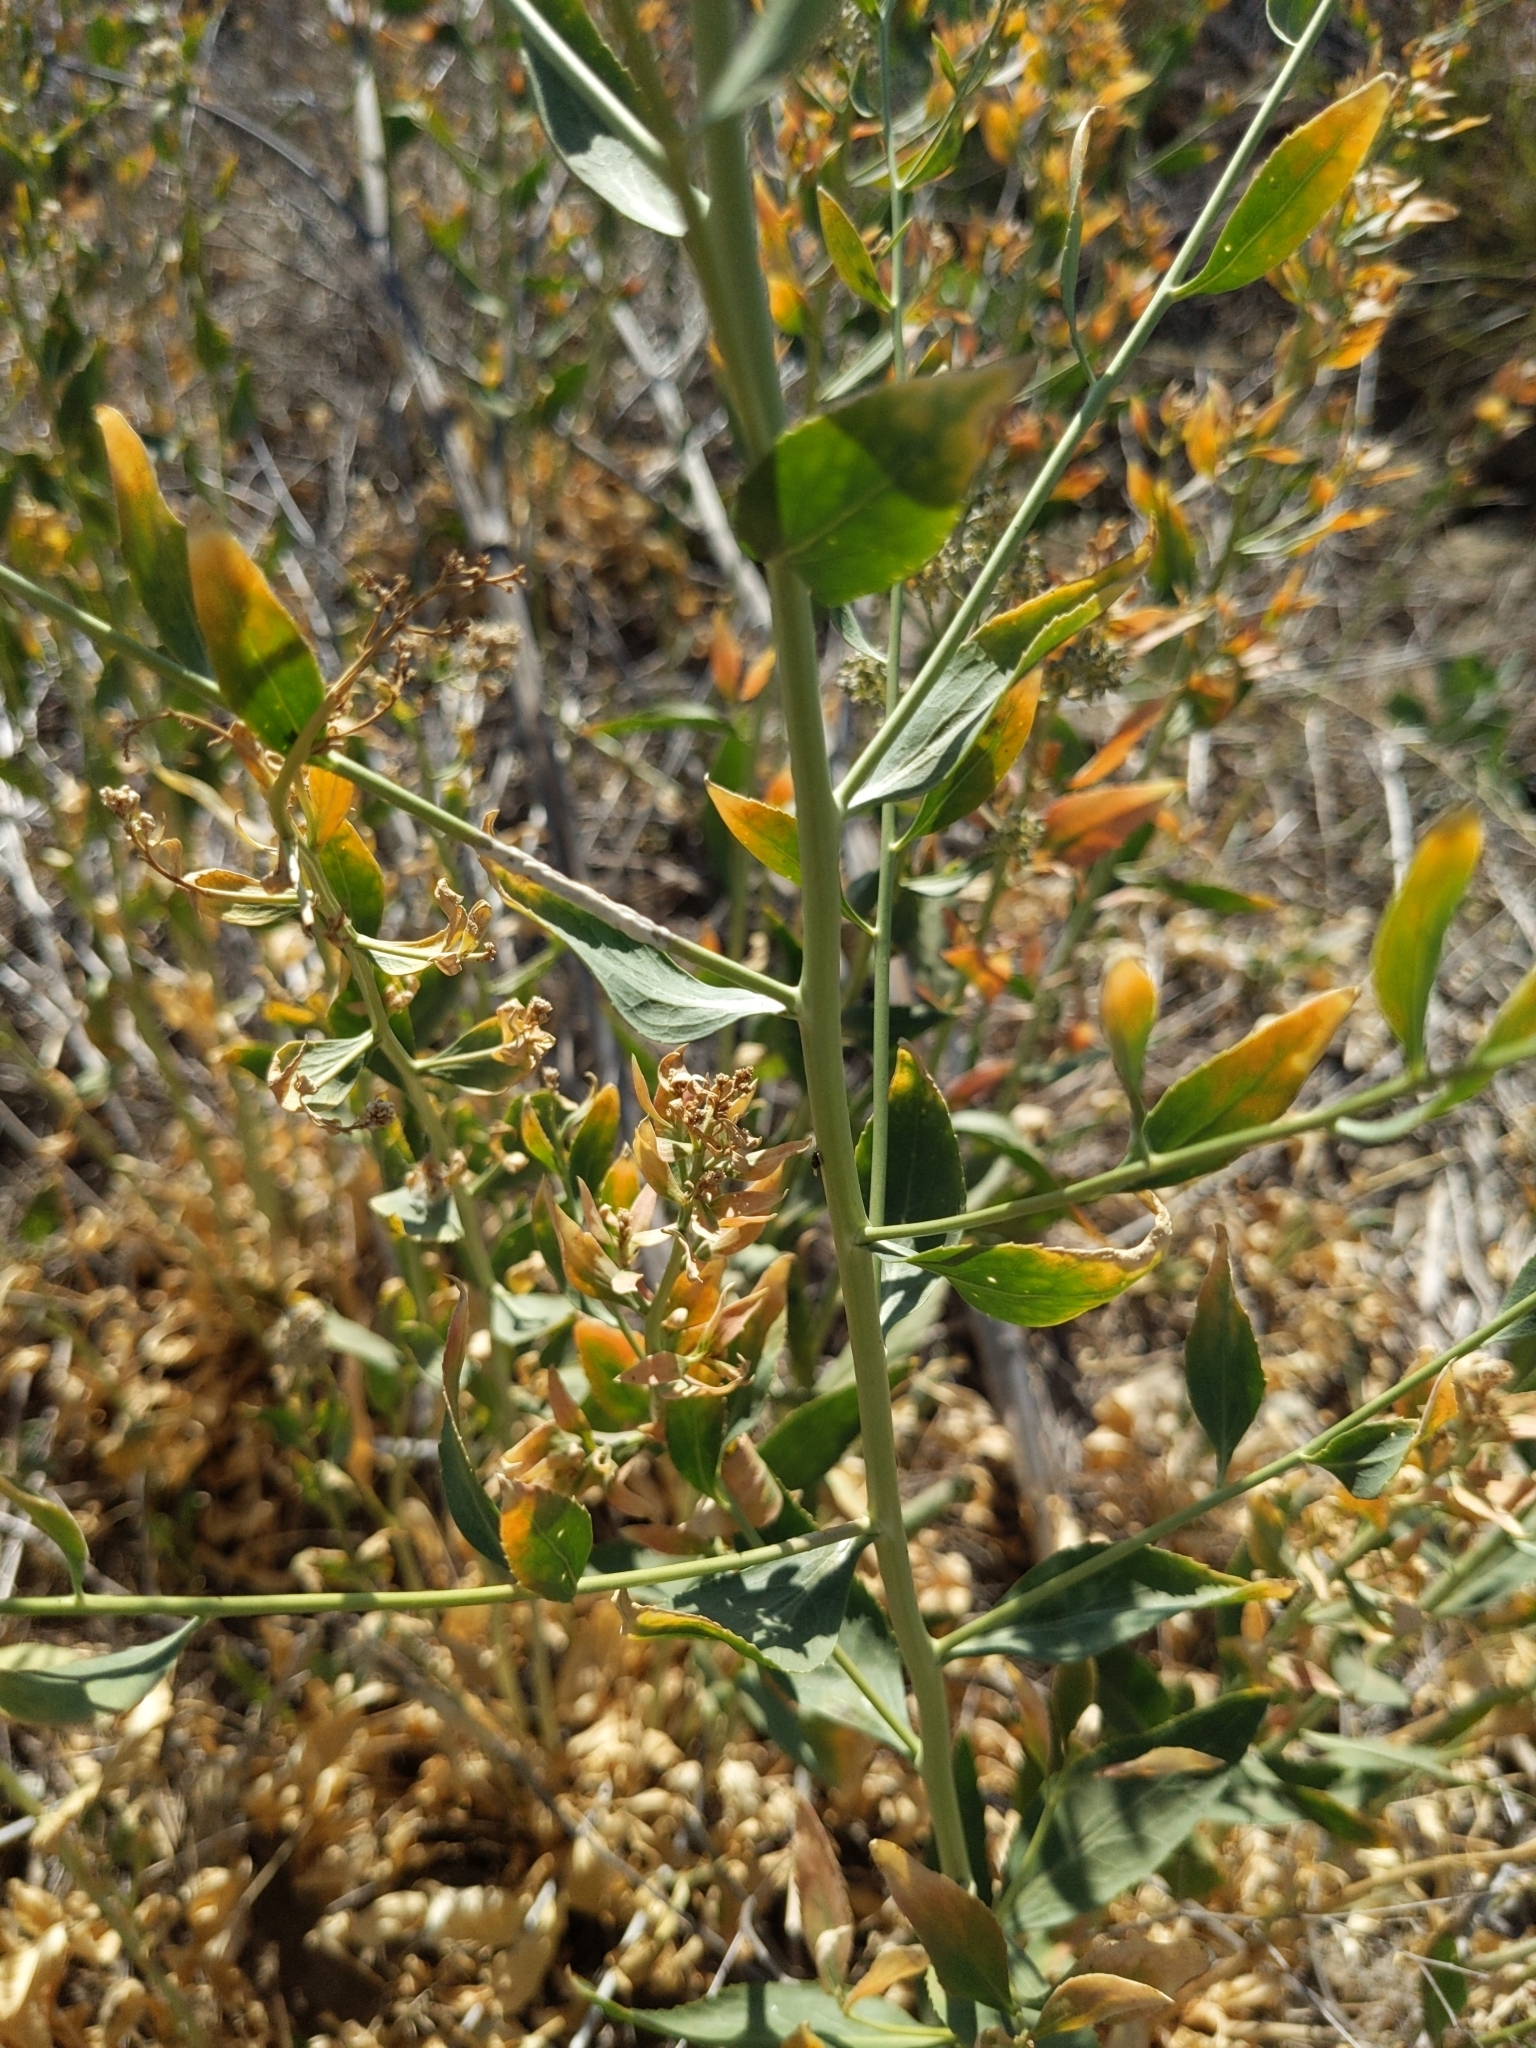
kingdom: Plantae
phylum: Tracheophyta
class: Magnoliopsida
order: Brassicales
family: Brassicaceae
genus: Lepidium
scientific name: Lepidium latifolium
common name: Dittander
